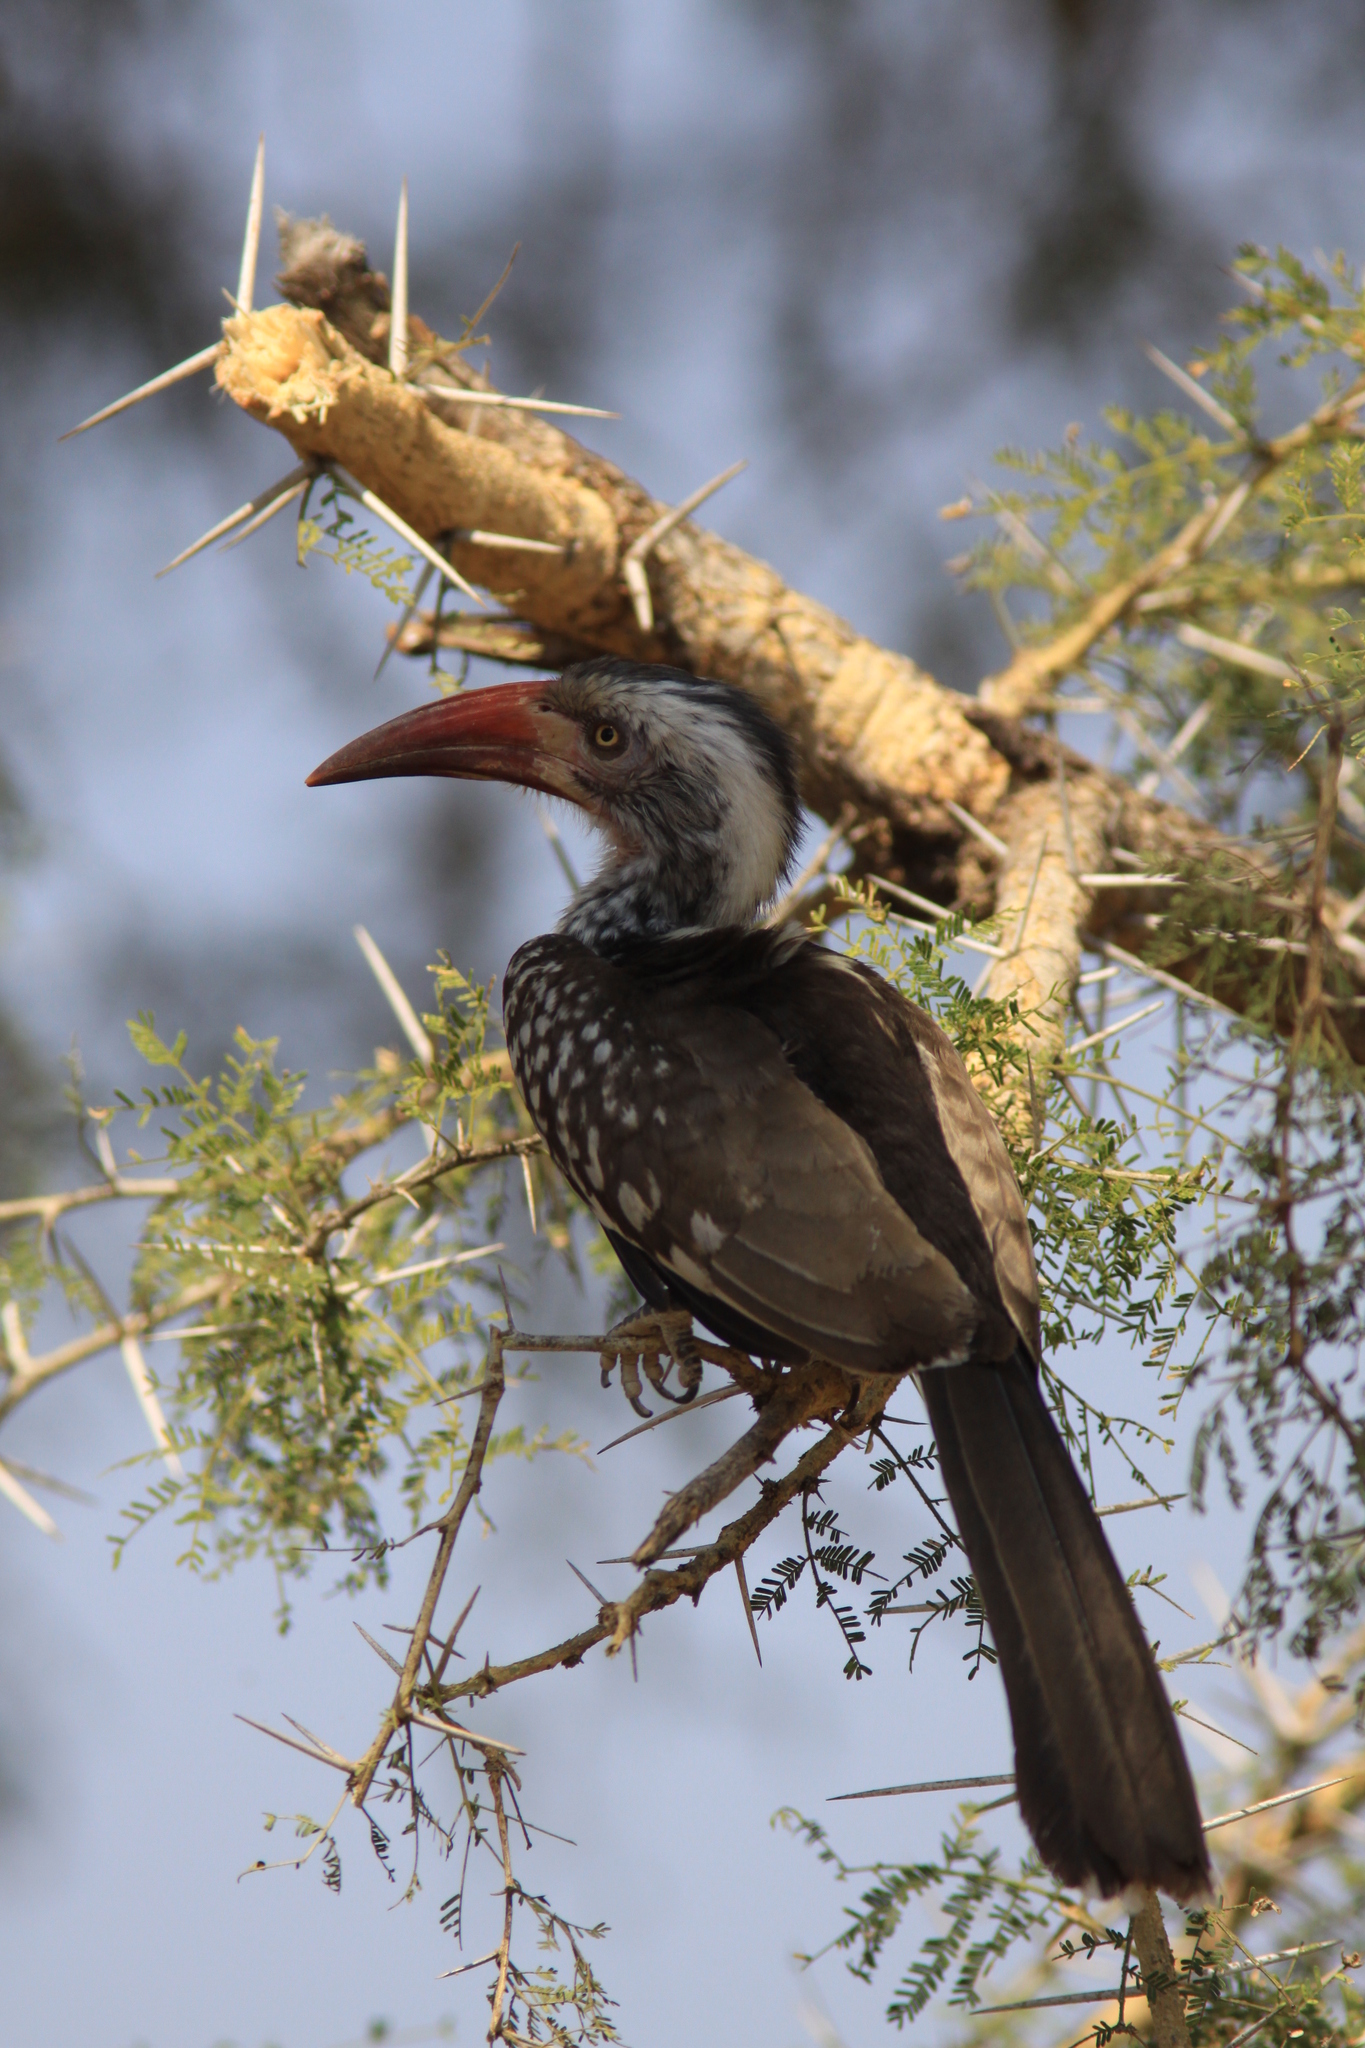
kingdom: Animalia
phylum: Chordata
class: Aves
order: Bucerotiformes
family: Bucerotidae
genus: Tockus
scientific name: Tockus rufirostris
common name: Southern red-billed hornbill
